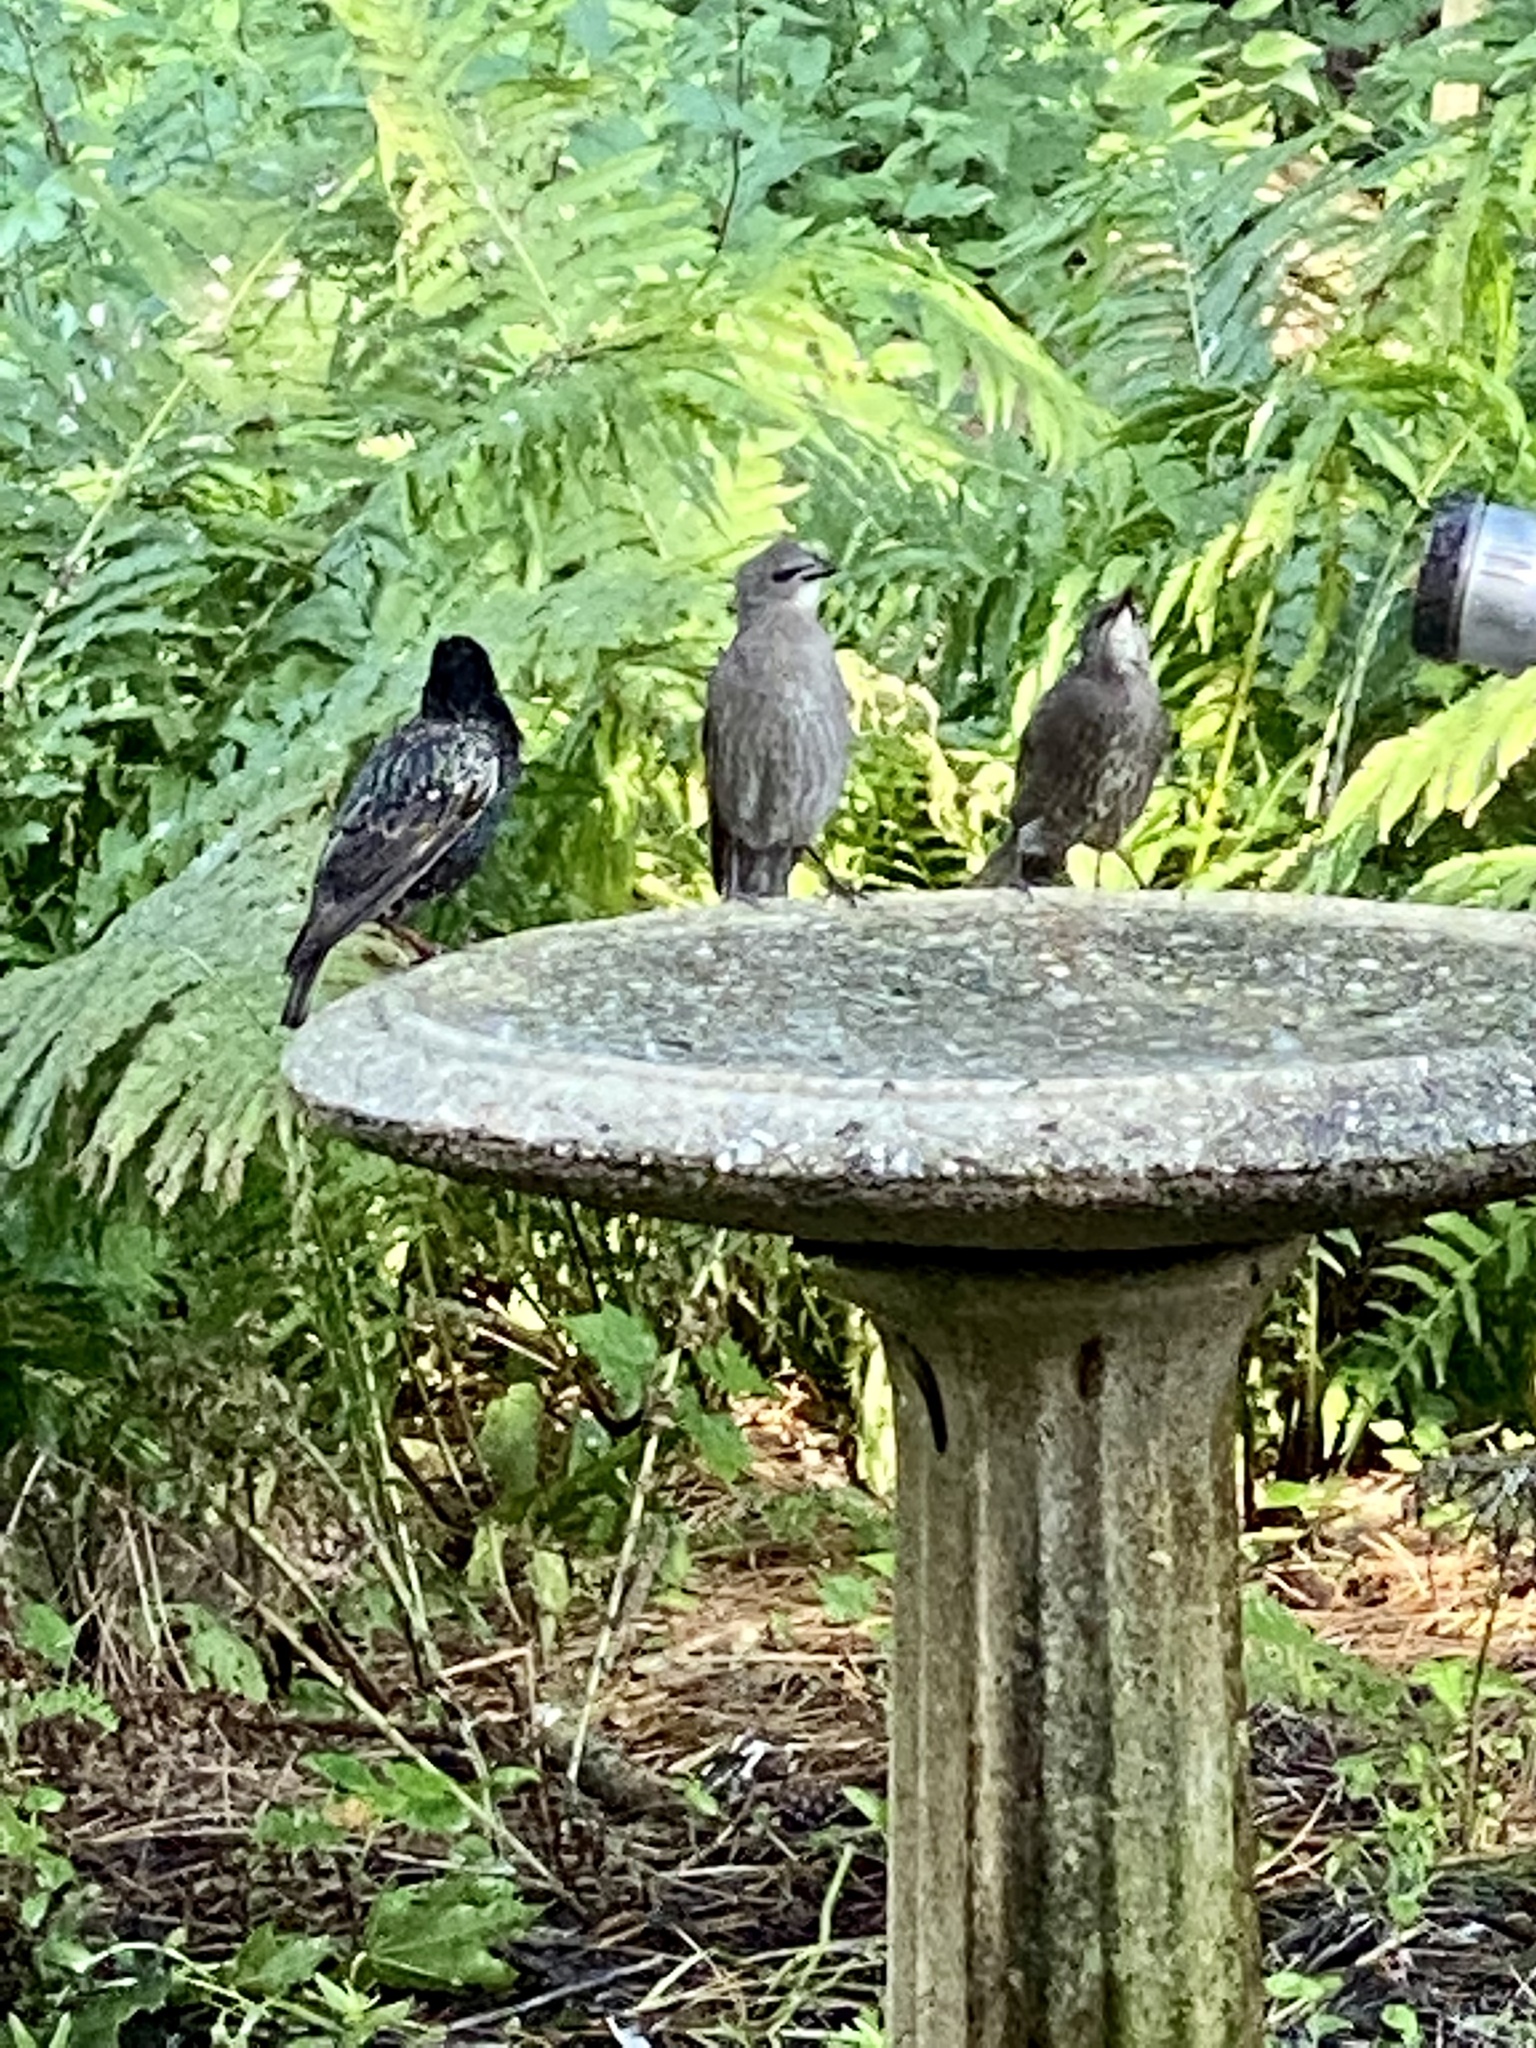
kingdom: Animalia
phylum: Chordata
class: Aves
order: Passeriformes
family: Sturnidae
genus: Sturnus
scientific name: Sturnus vulgaris
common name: Common starling
